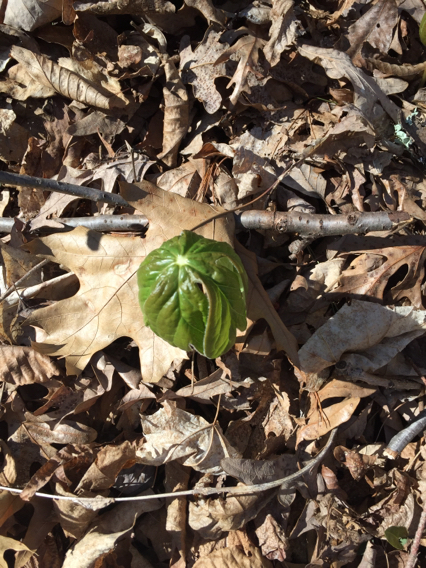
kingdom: Plantae
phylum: Tracheophyta
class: Magnoliopsida
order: Ranunculales
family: Berberidaceae
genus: Podophyllum
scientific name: Podophyllum peltatum
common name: Wild mandrake
